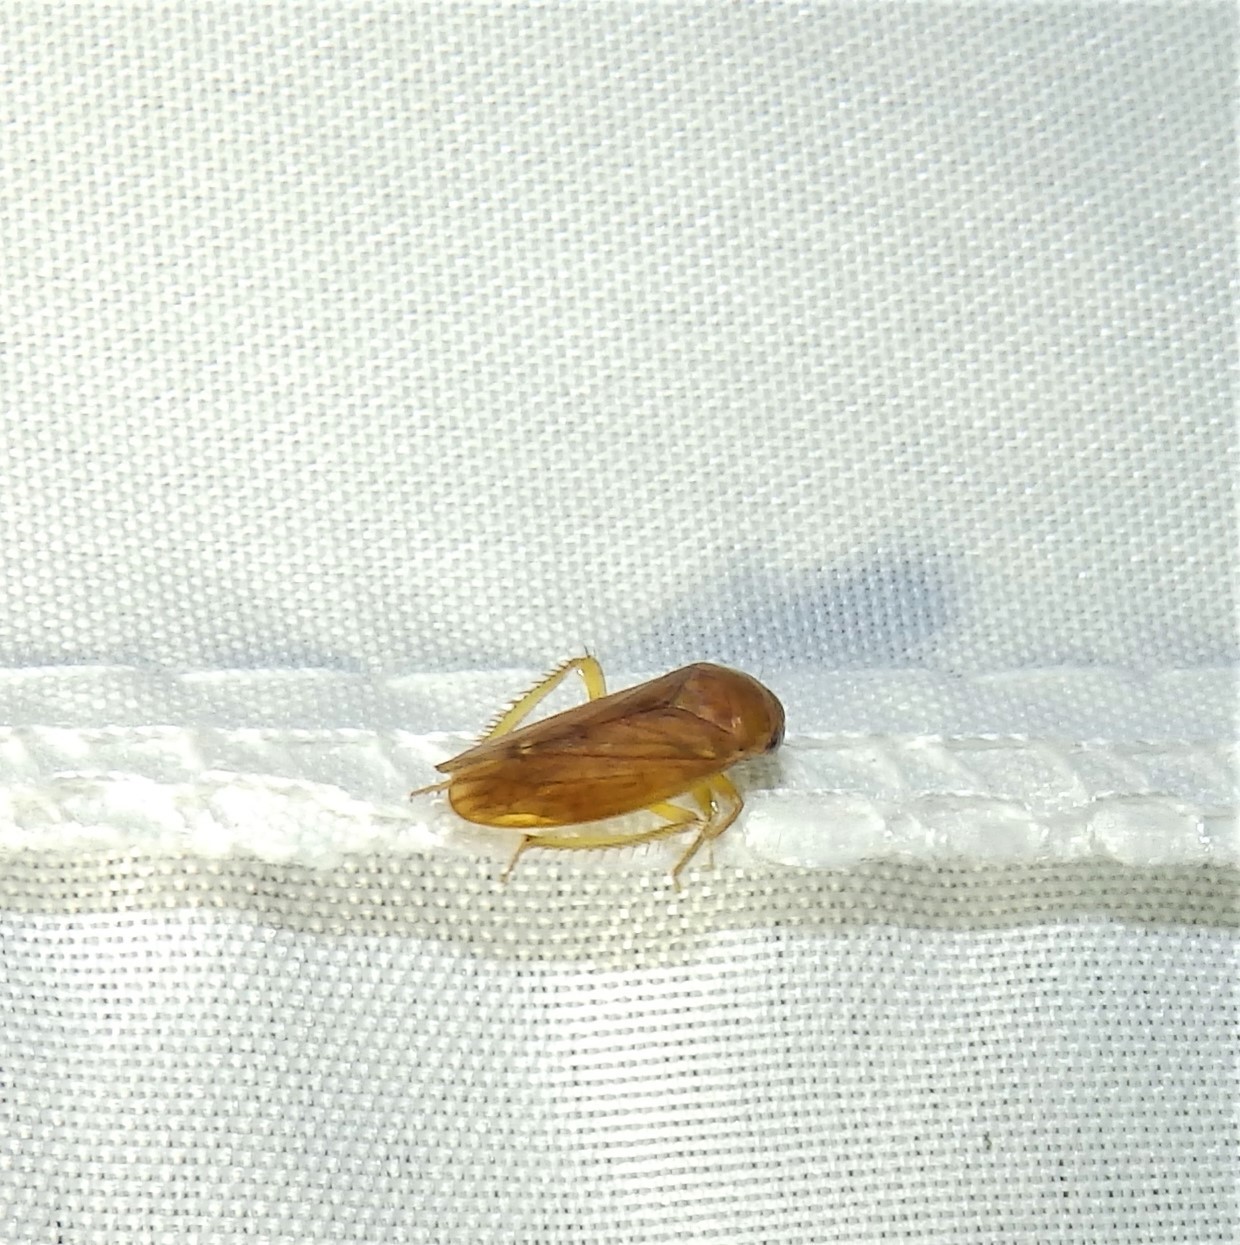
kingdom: Animalia
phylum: Arthropoda
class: Insecta
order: Hemiptera
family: Cicadellidae
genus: Polana
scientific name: Polana quadrinotata
